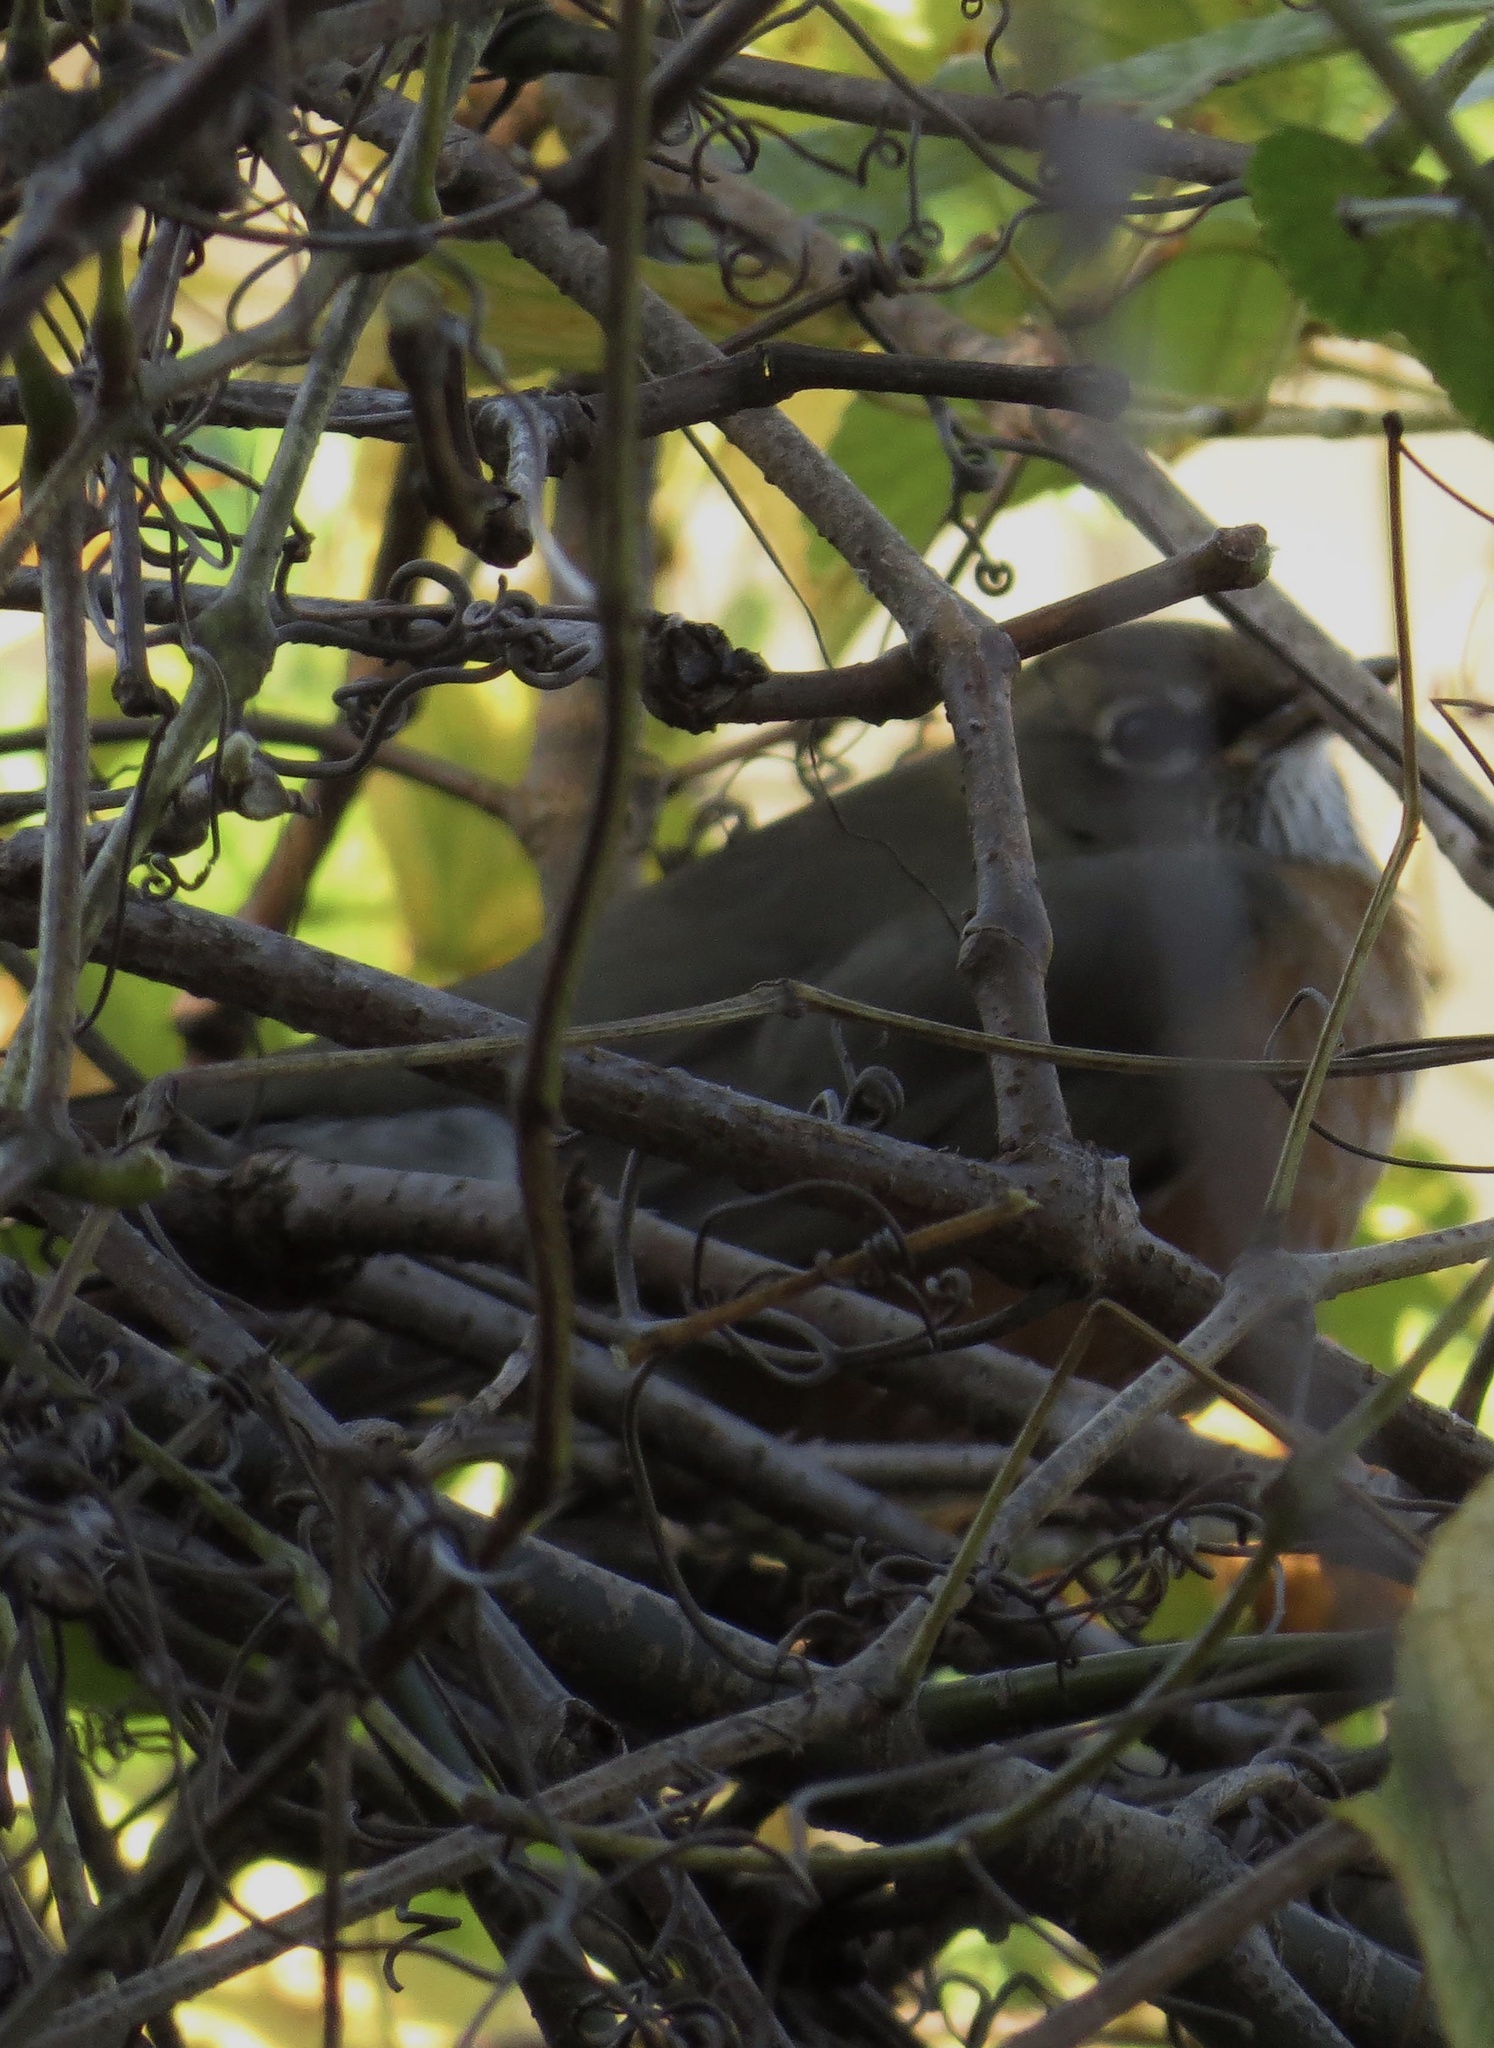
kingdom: Animalia
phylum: Chordata
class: Aves
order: Passeriformes
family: Turdidae
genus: Turdus
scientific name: Turdus migratorius
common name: American robin
